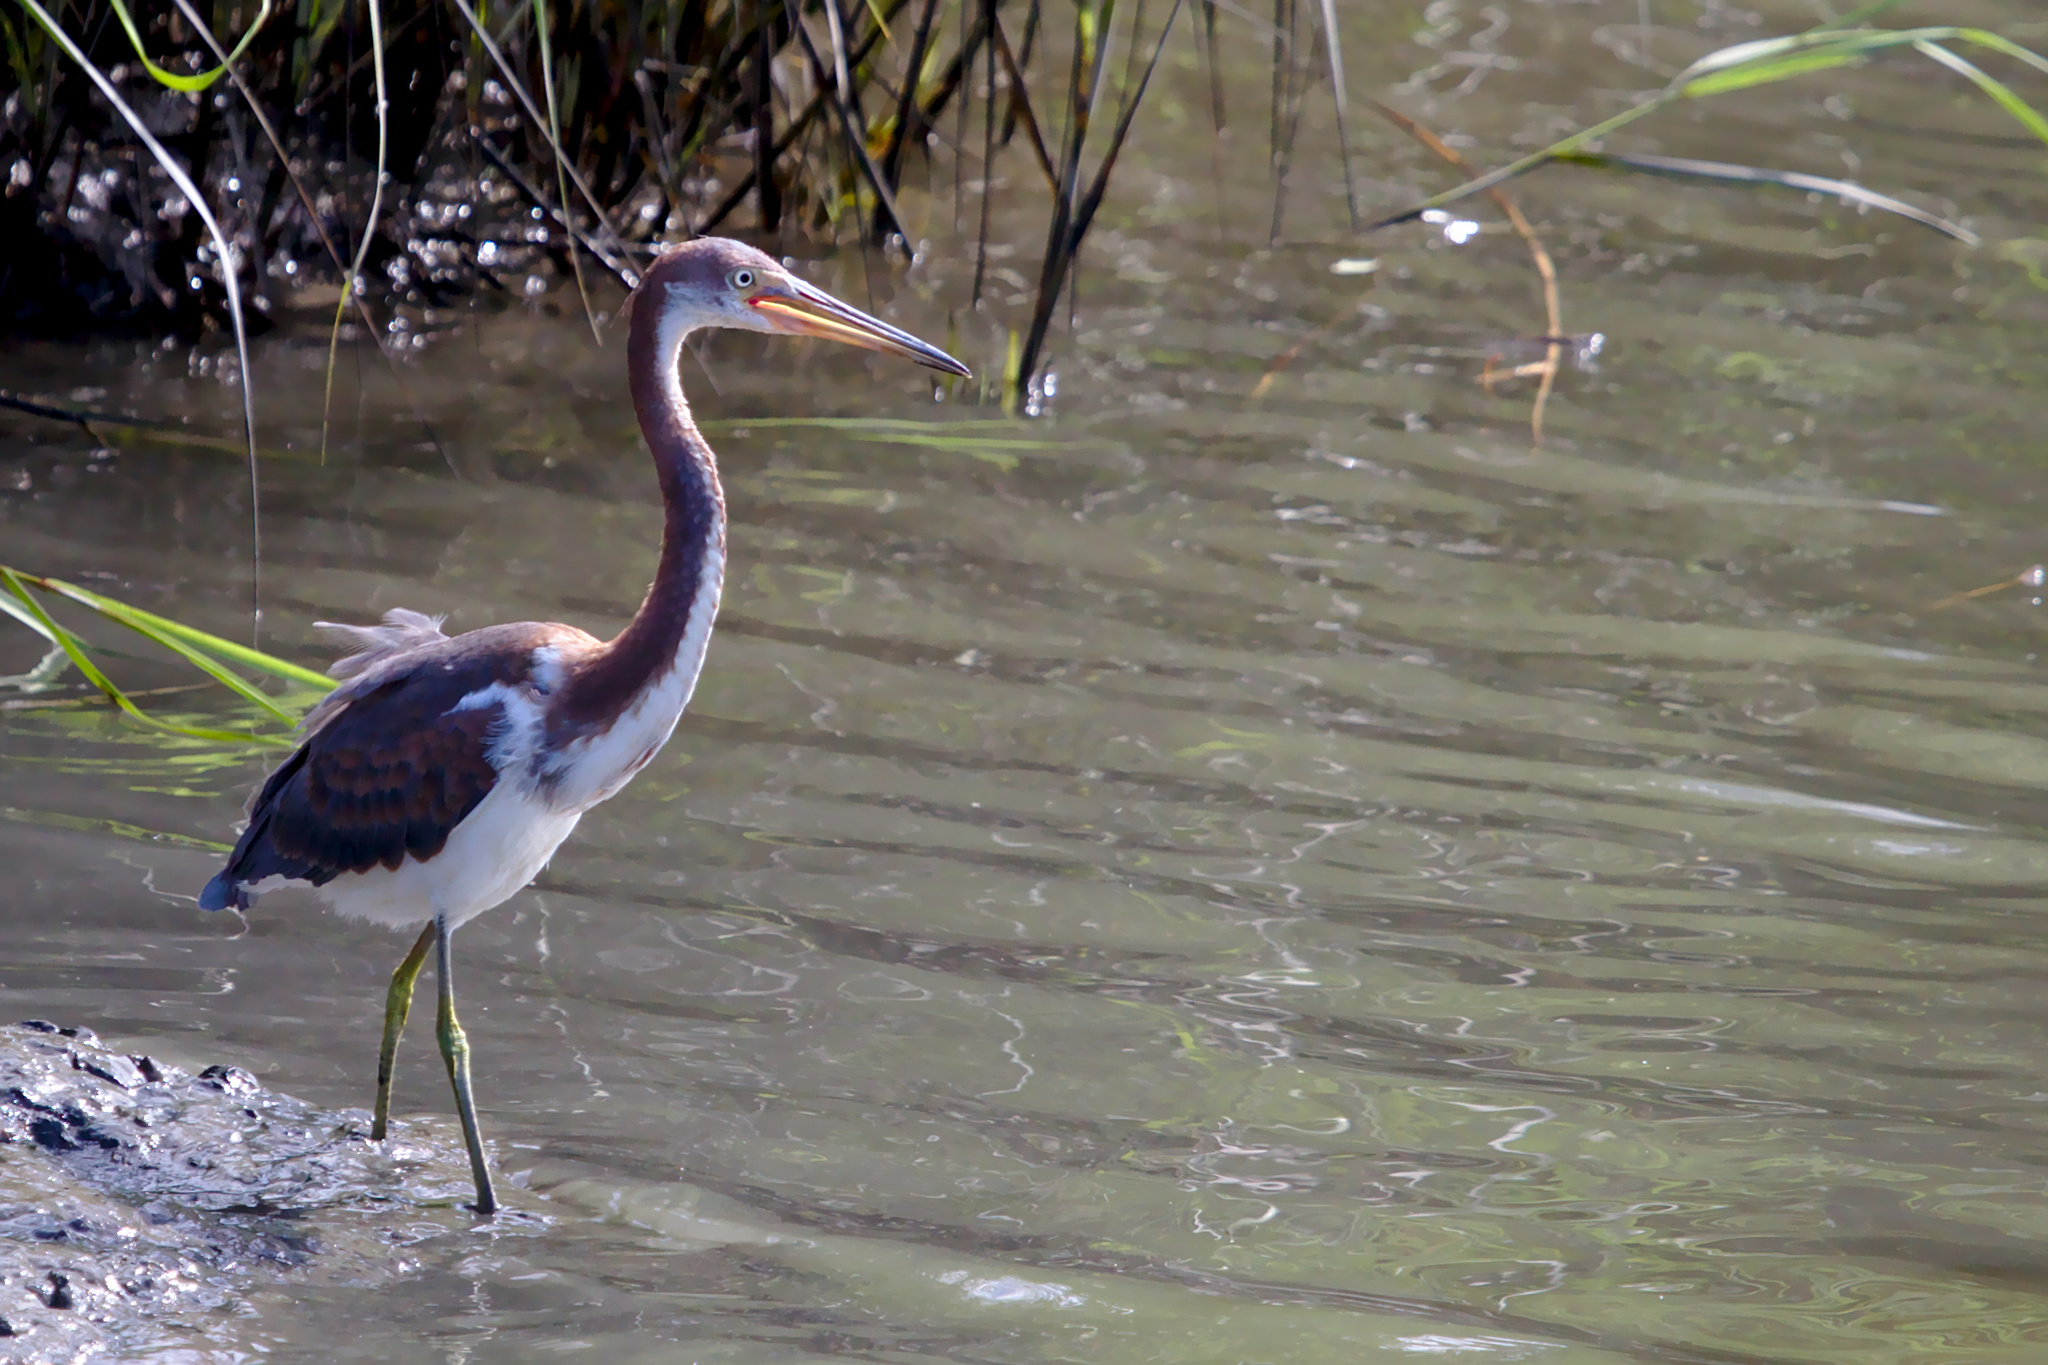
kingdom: Animalia
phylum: Chordata
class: Aves
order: Pelecaniformes
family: Ardeidae
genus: Egretta
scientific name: Egretta tricolor
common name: Tricolored heron
